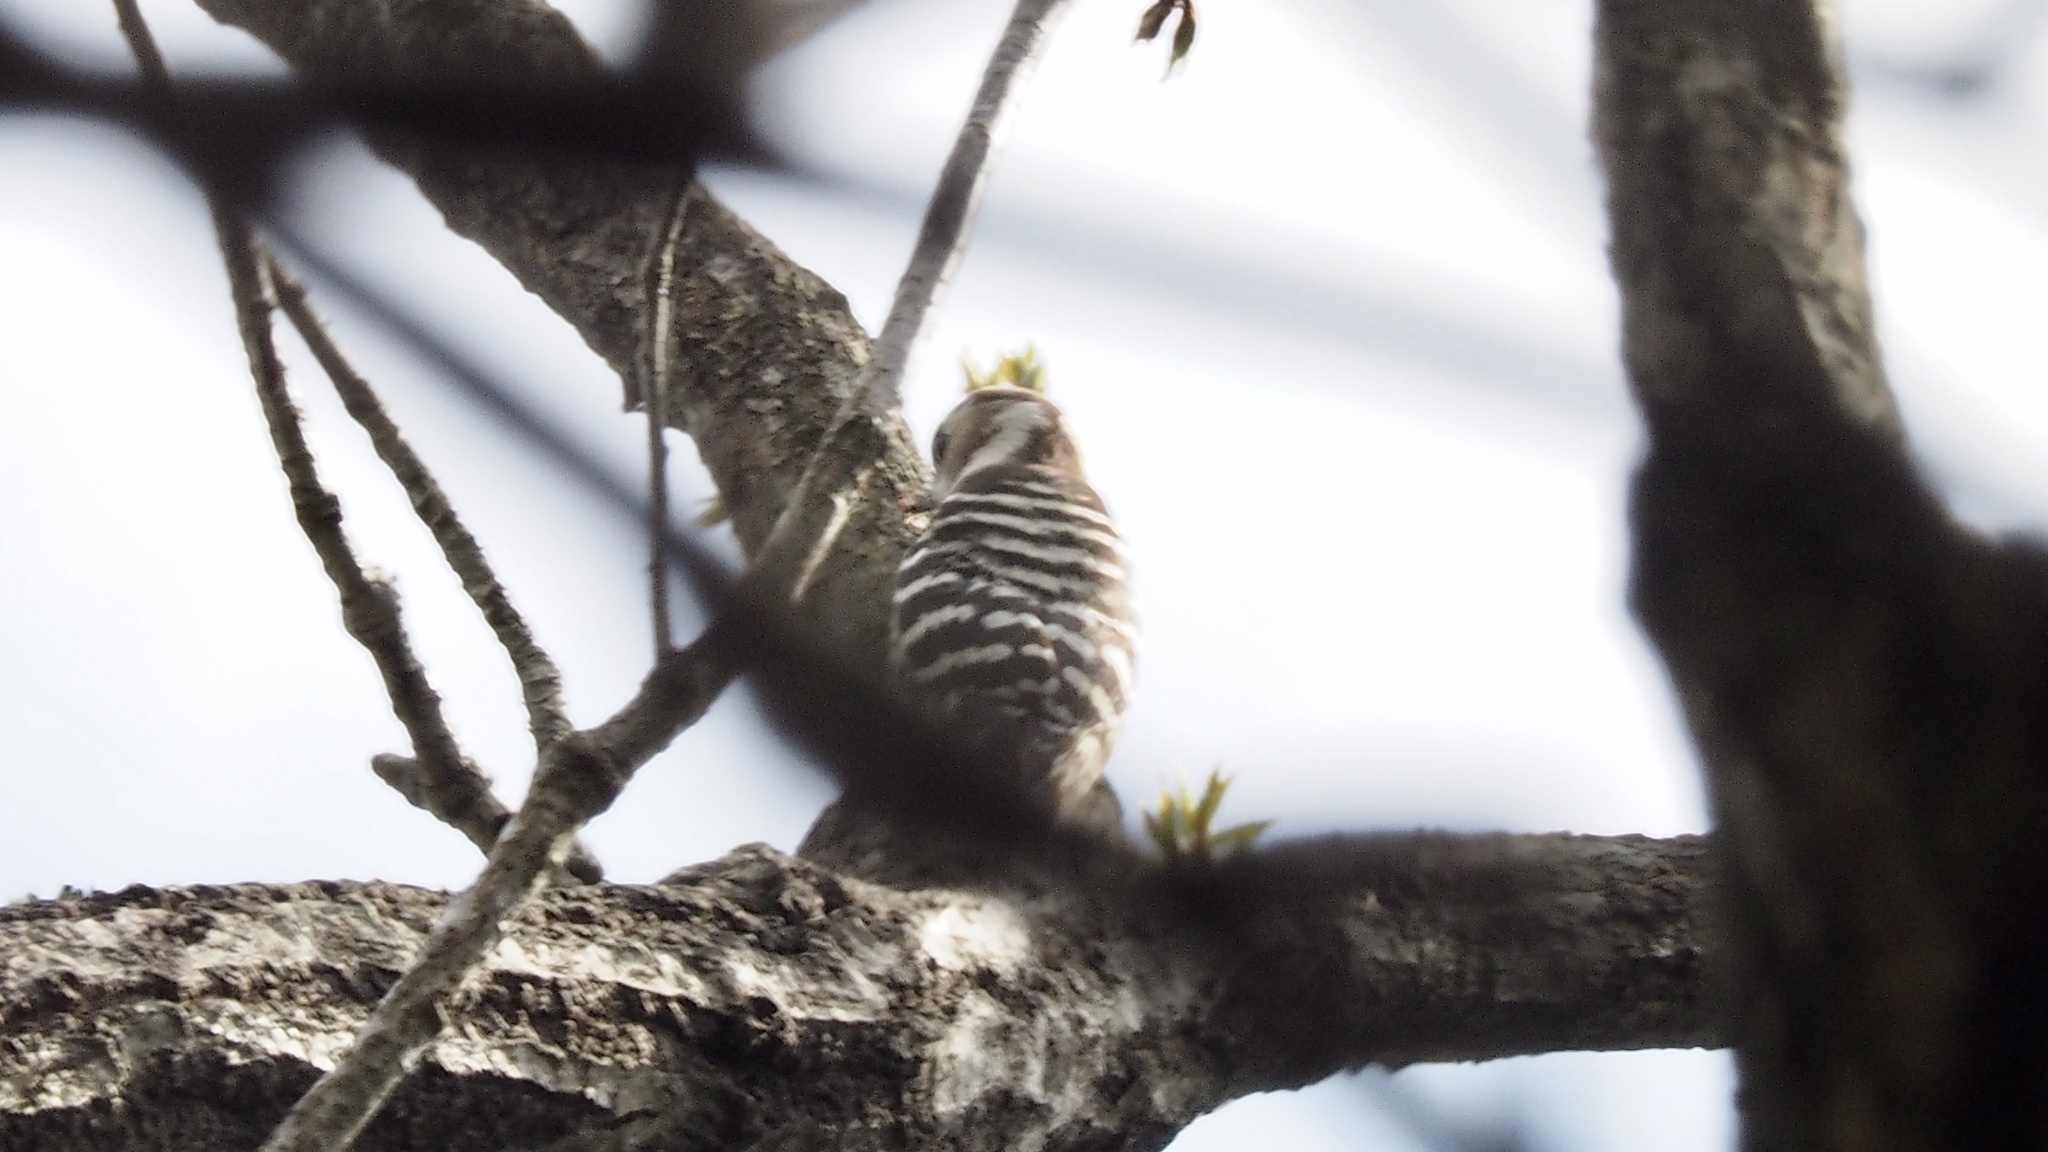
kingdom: Animalia
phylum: Chordata
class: Aves
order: Piciformes
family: Picidae
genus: Yungipicus
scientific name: Yungipicus kizuki
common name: Japanese pygmy woodpecker
